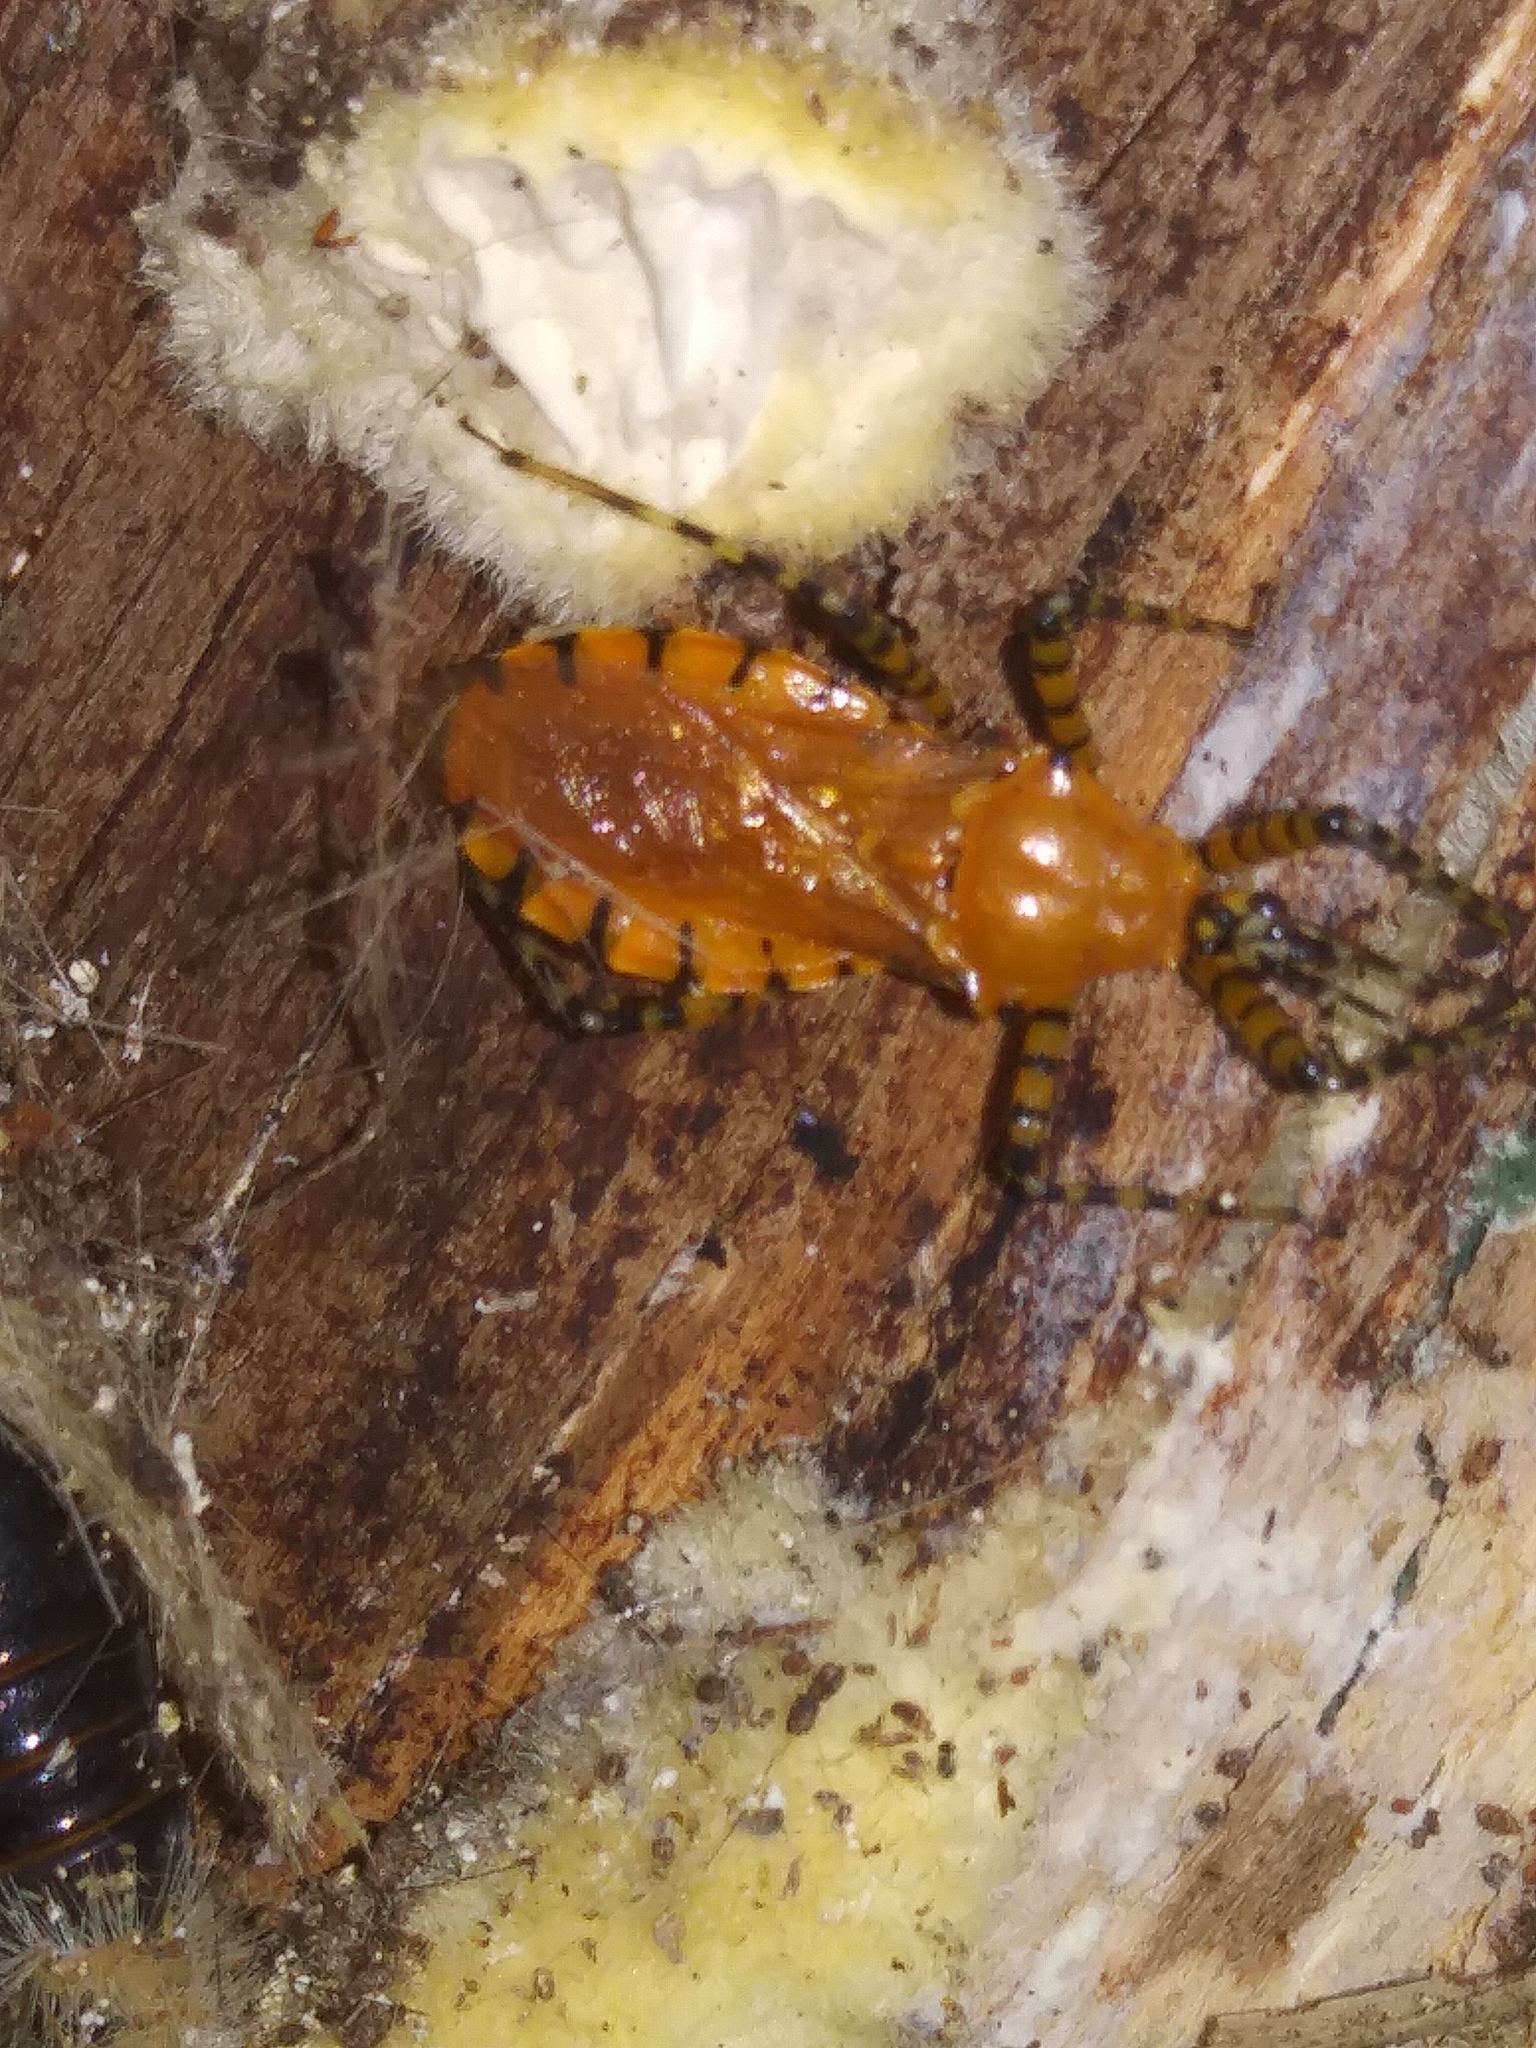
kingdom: Animalia
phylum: Arthropoda
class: Insecta
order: Hemiptera
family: Reduviidae
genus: Pselliopus
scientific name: Pselliopus barberi
